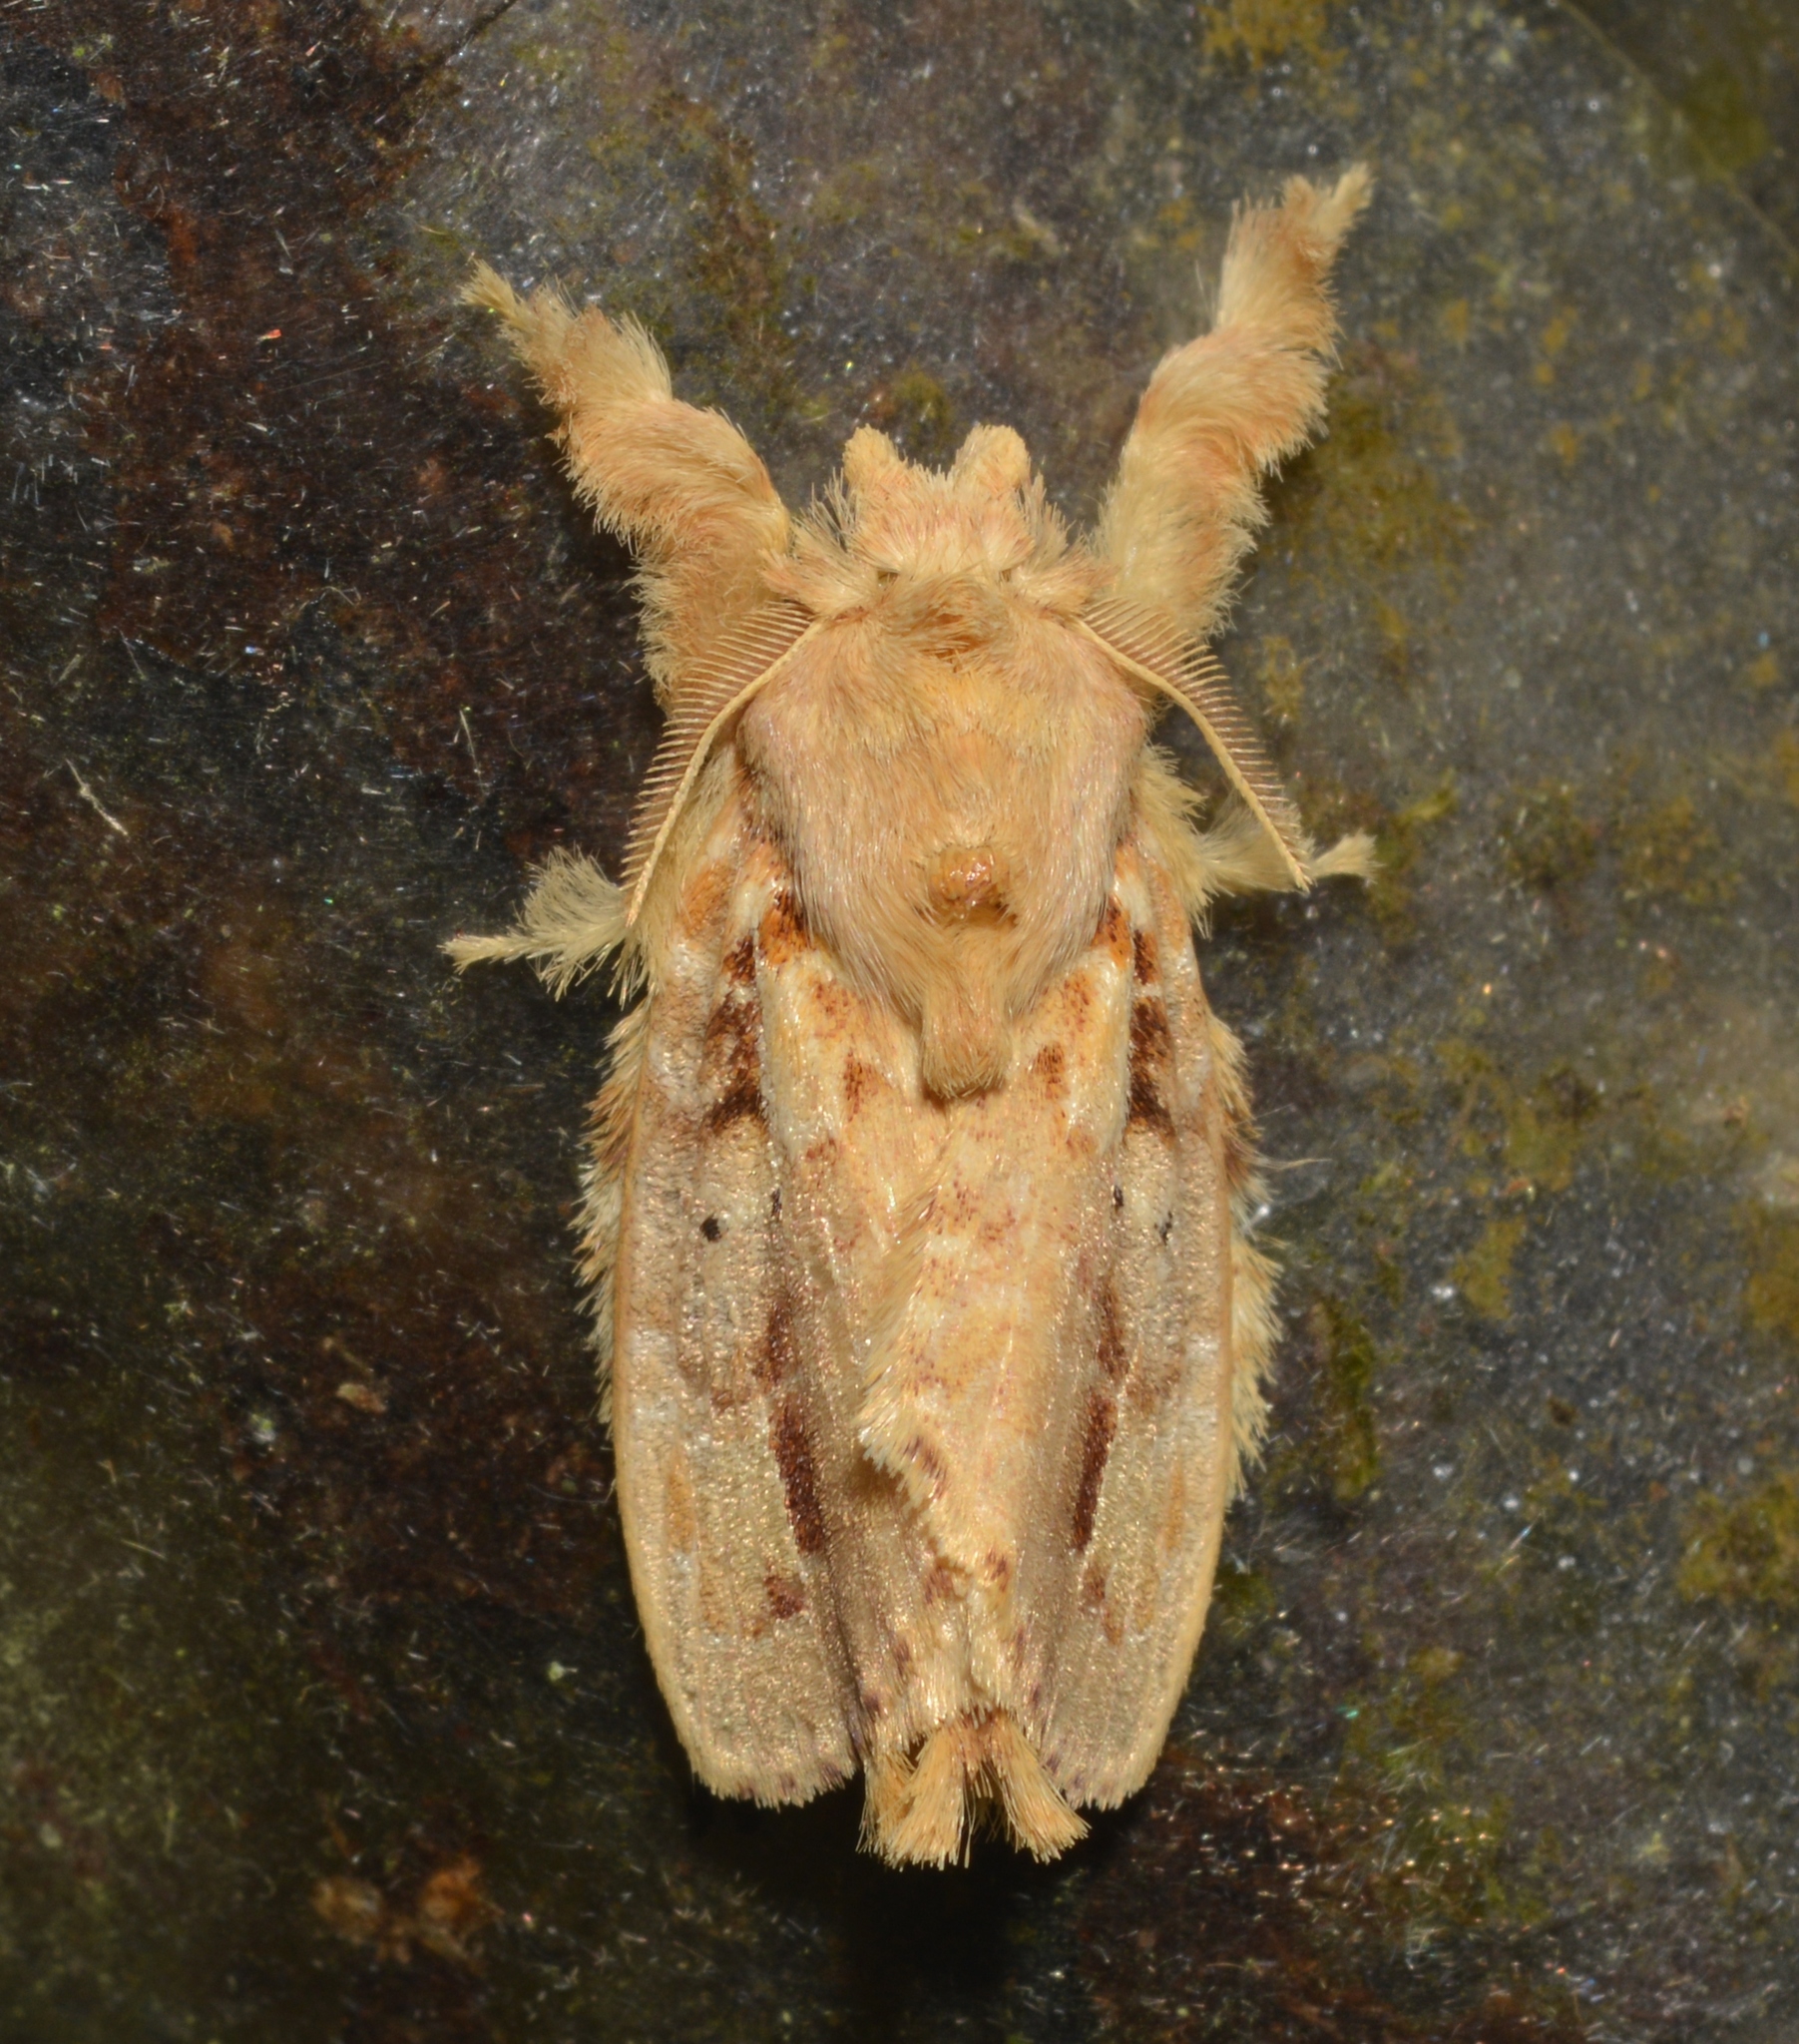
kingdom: Animalia
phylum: Arthropoda
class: Insecta
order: Lepidoptera
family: Lasiocampidae
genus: Nesara
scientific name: Nesara casada
